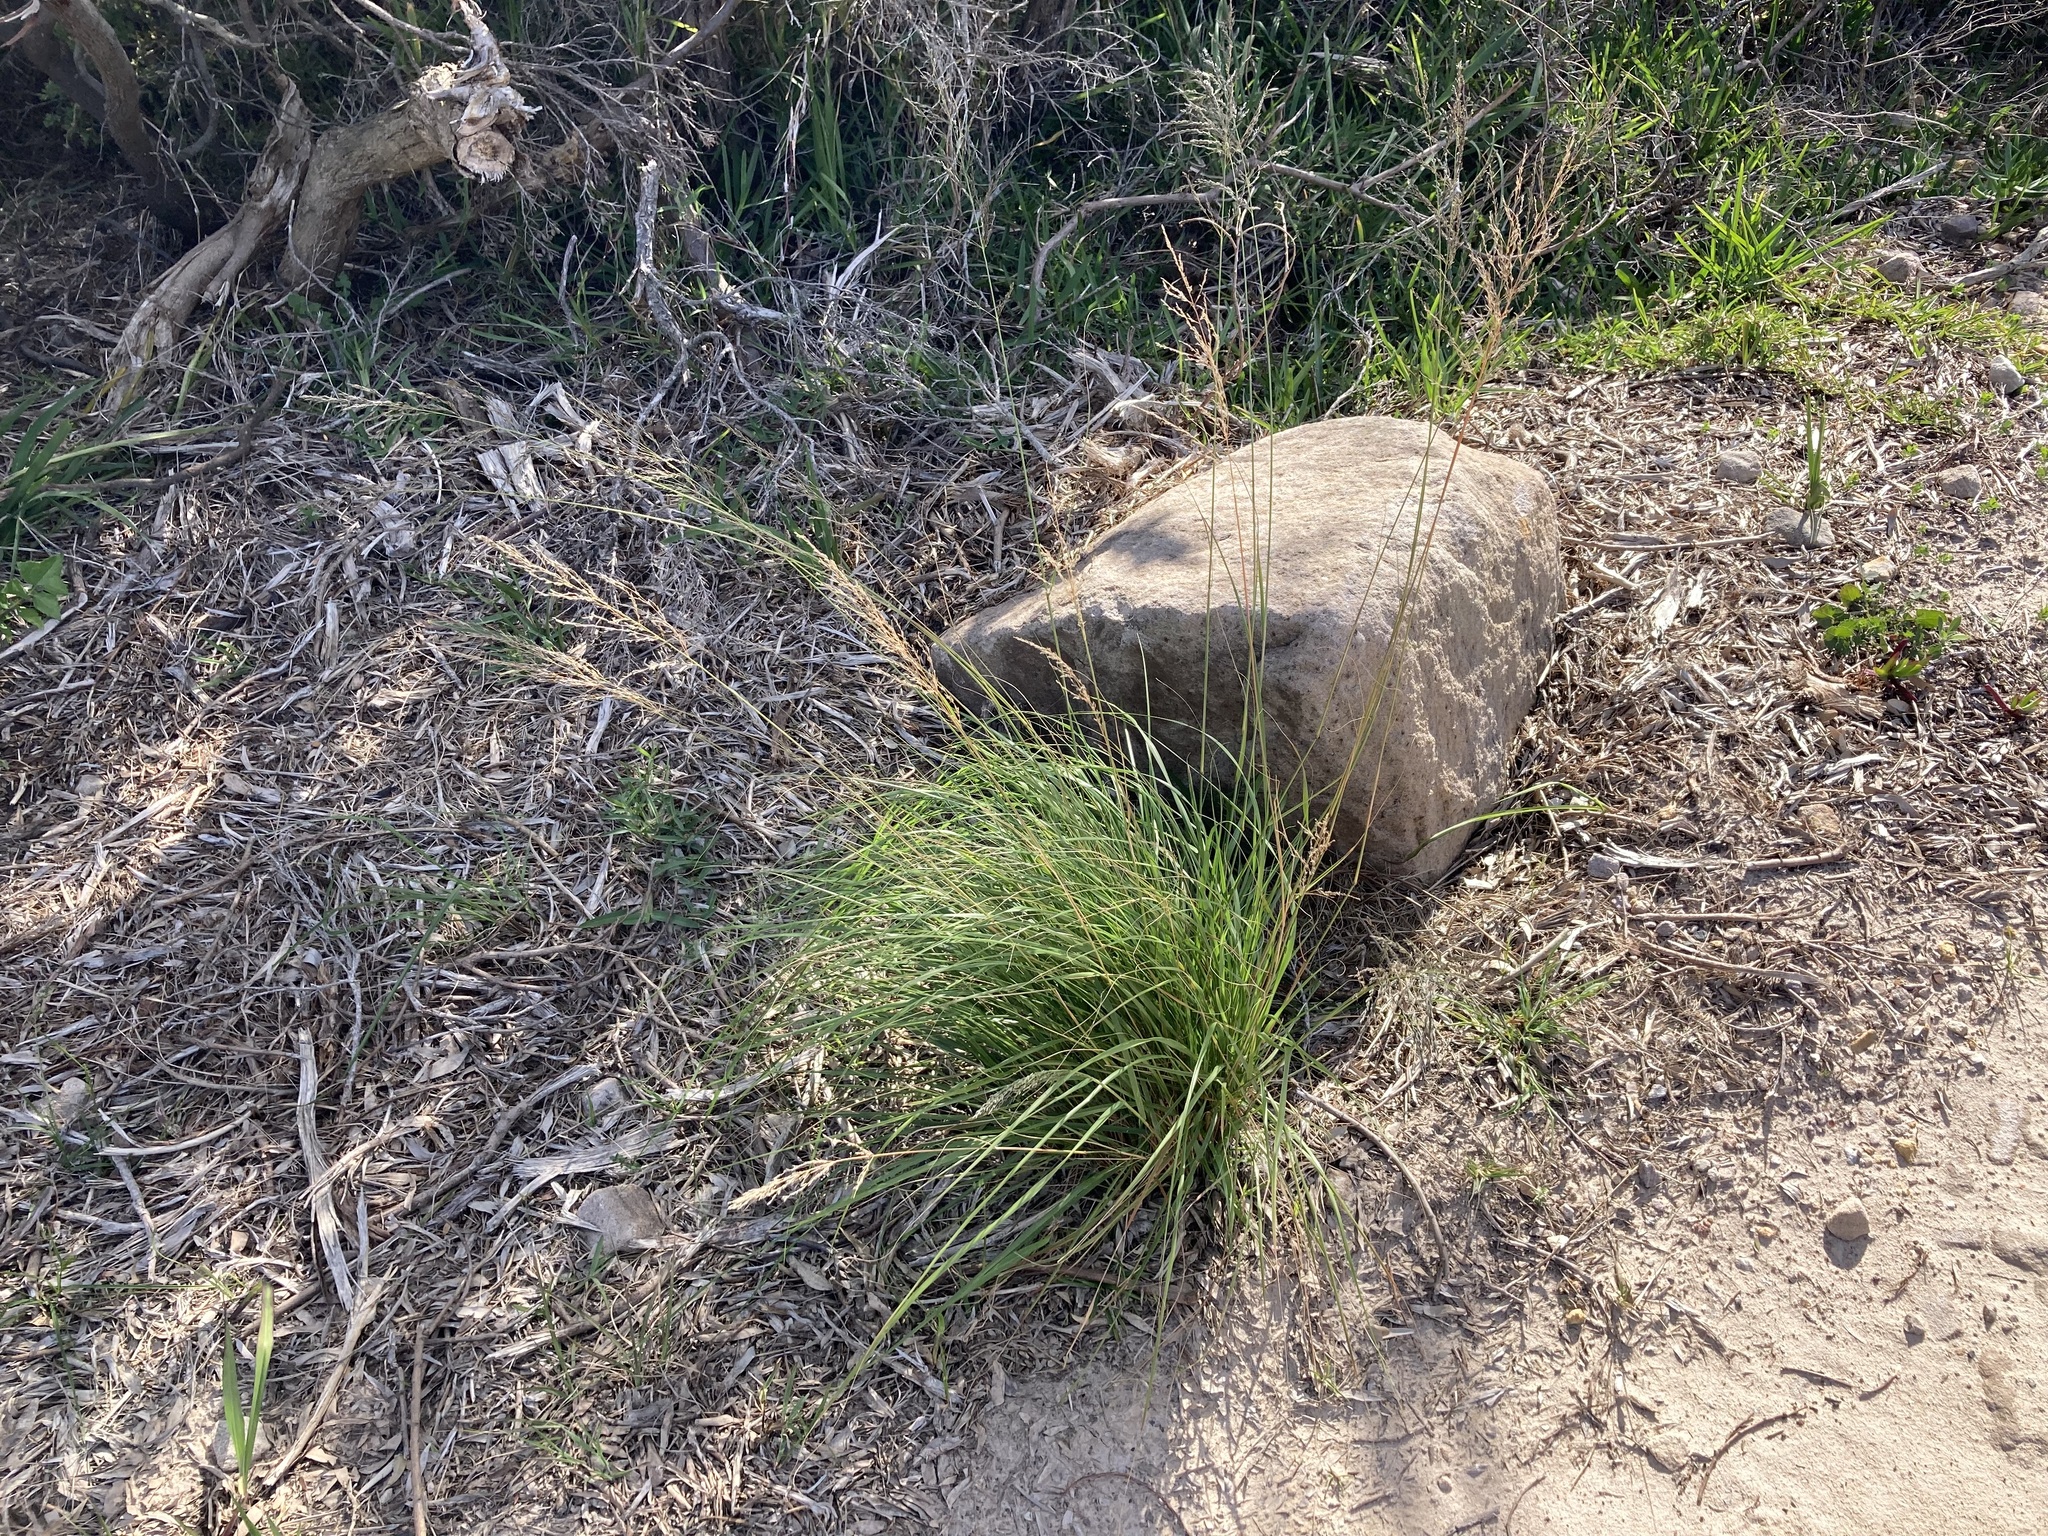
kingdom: Plantae
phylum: Tracheophyta
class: Liliopsida
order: Poales
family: Poaceae
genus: Eragrostis
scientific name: Eragrostis curvula
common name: African love-grass
